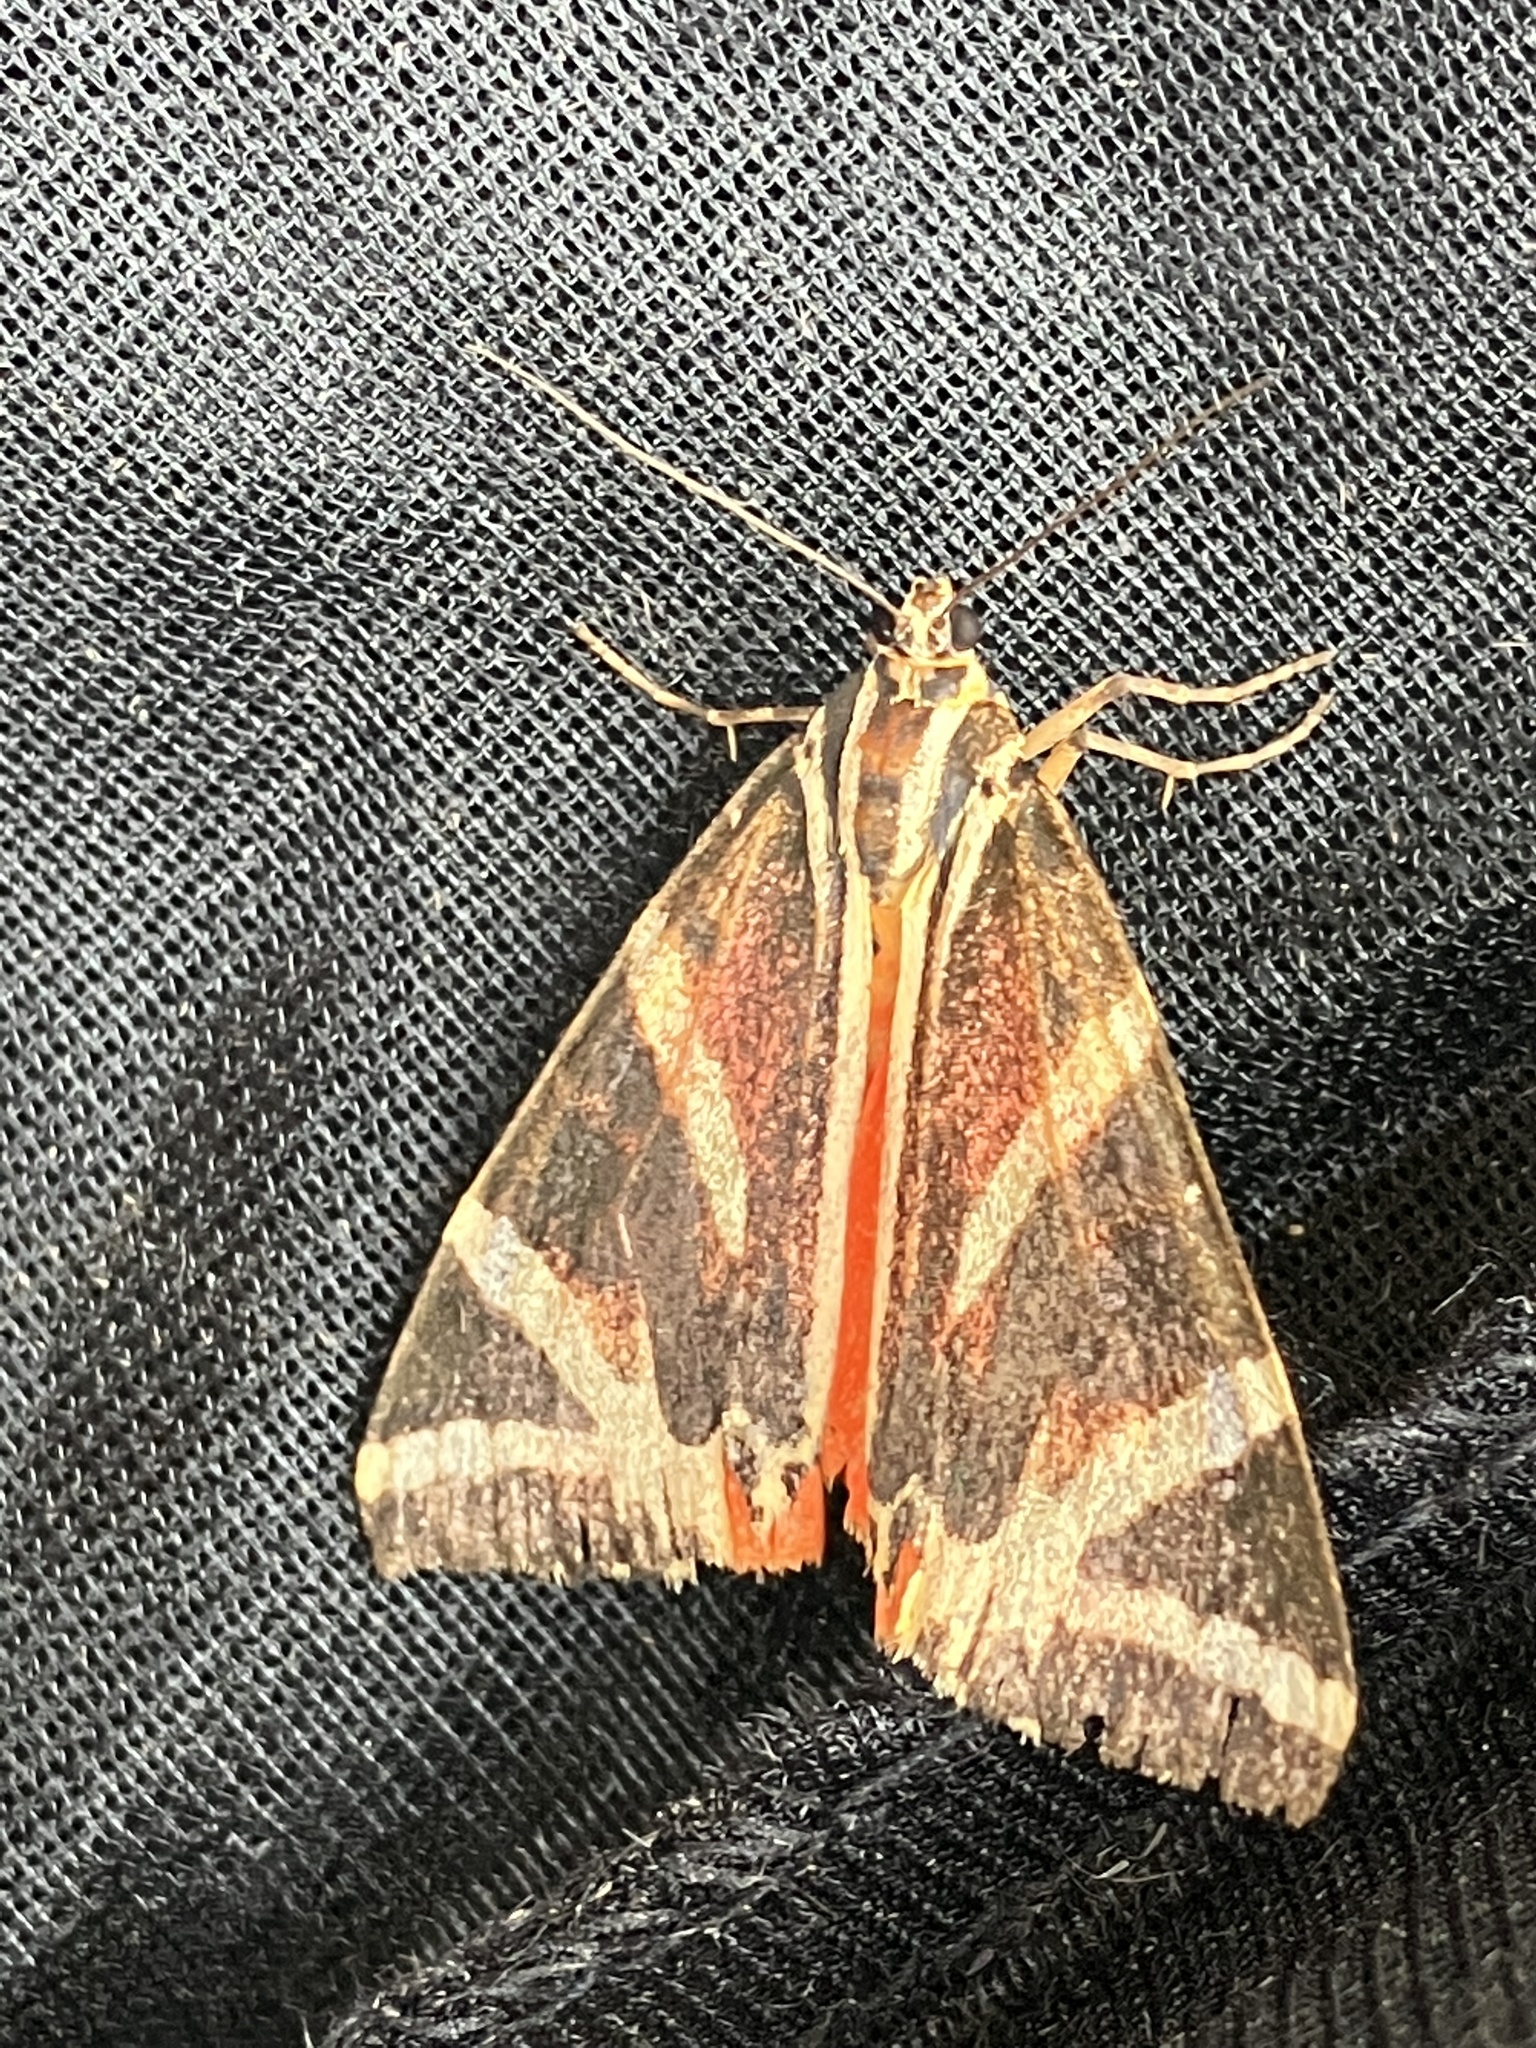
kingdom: Animalia
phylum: Arthropoda
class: Insecta
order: Lepidoptera
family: Erebidae
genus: Euplagia
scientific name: Euplagia quadripunctaria
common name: Jersey tiger
